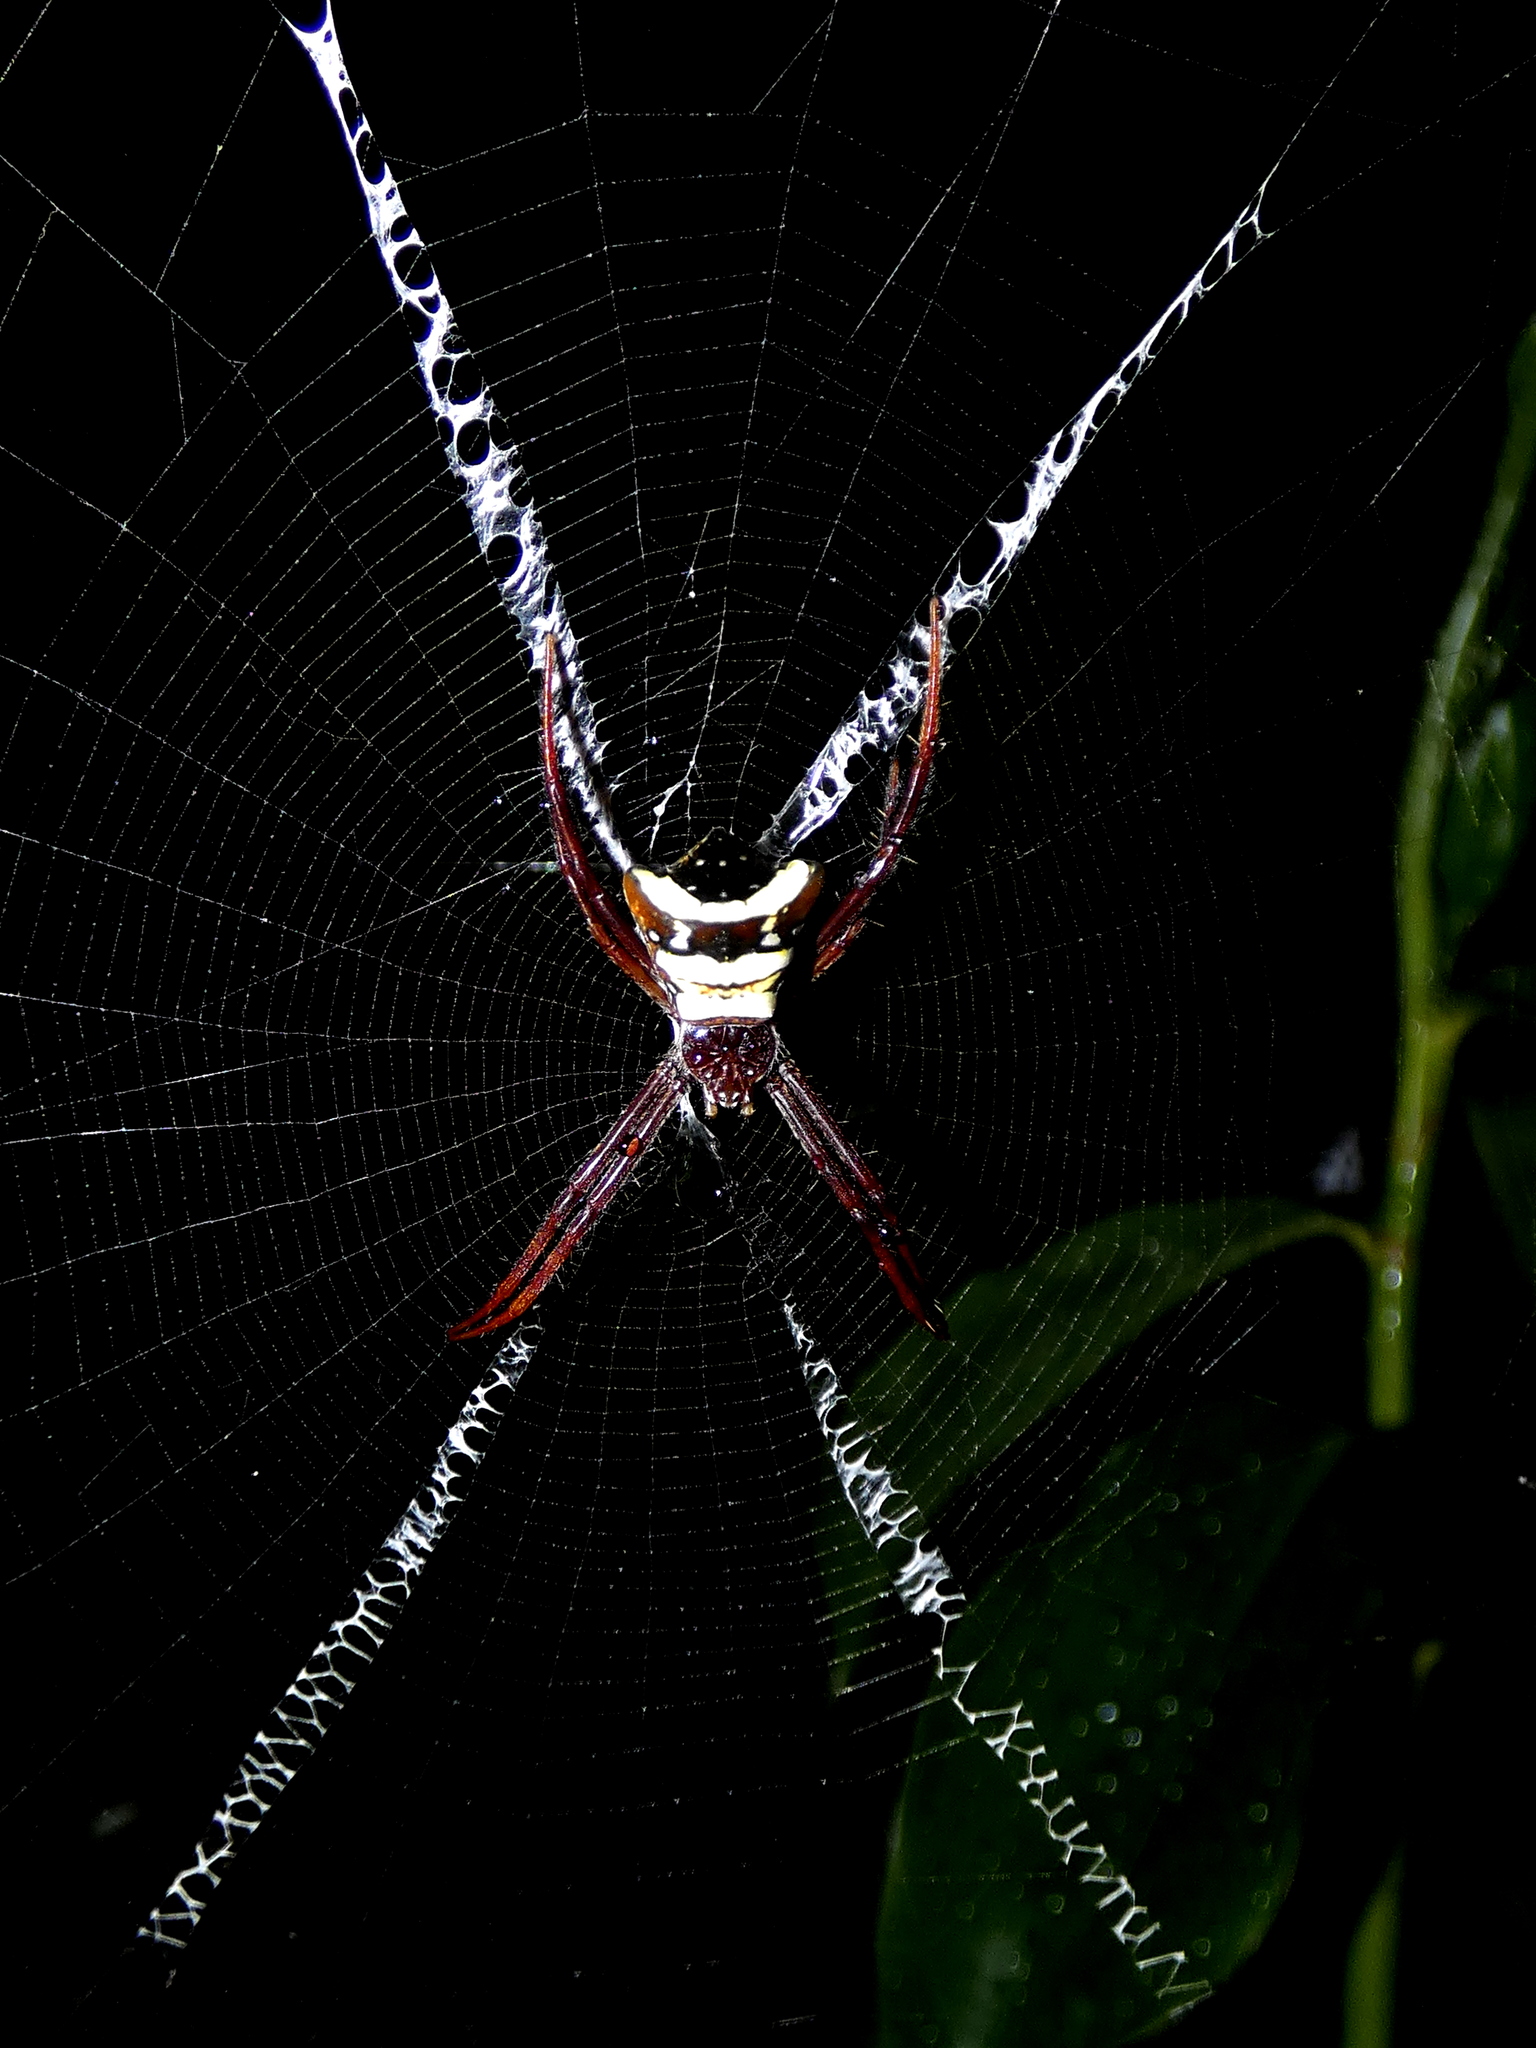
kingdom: Animalia
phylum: Arthropoda
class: Arachnida
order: Araneae
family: Araneidae
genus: Argiope
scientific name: Argiope reinwardti
